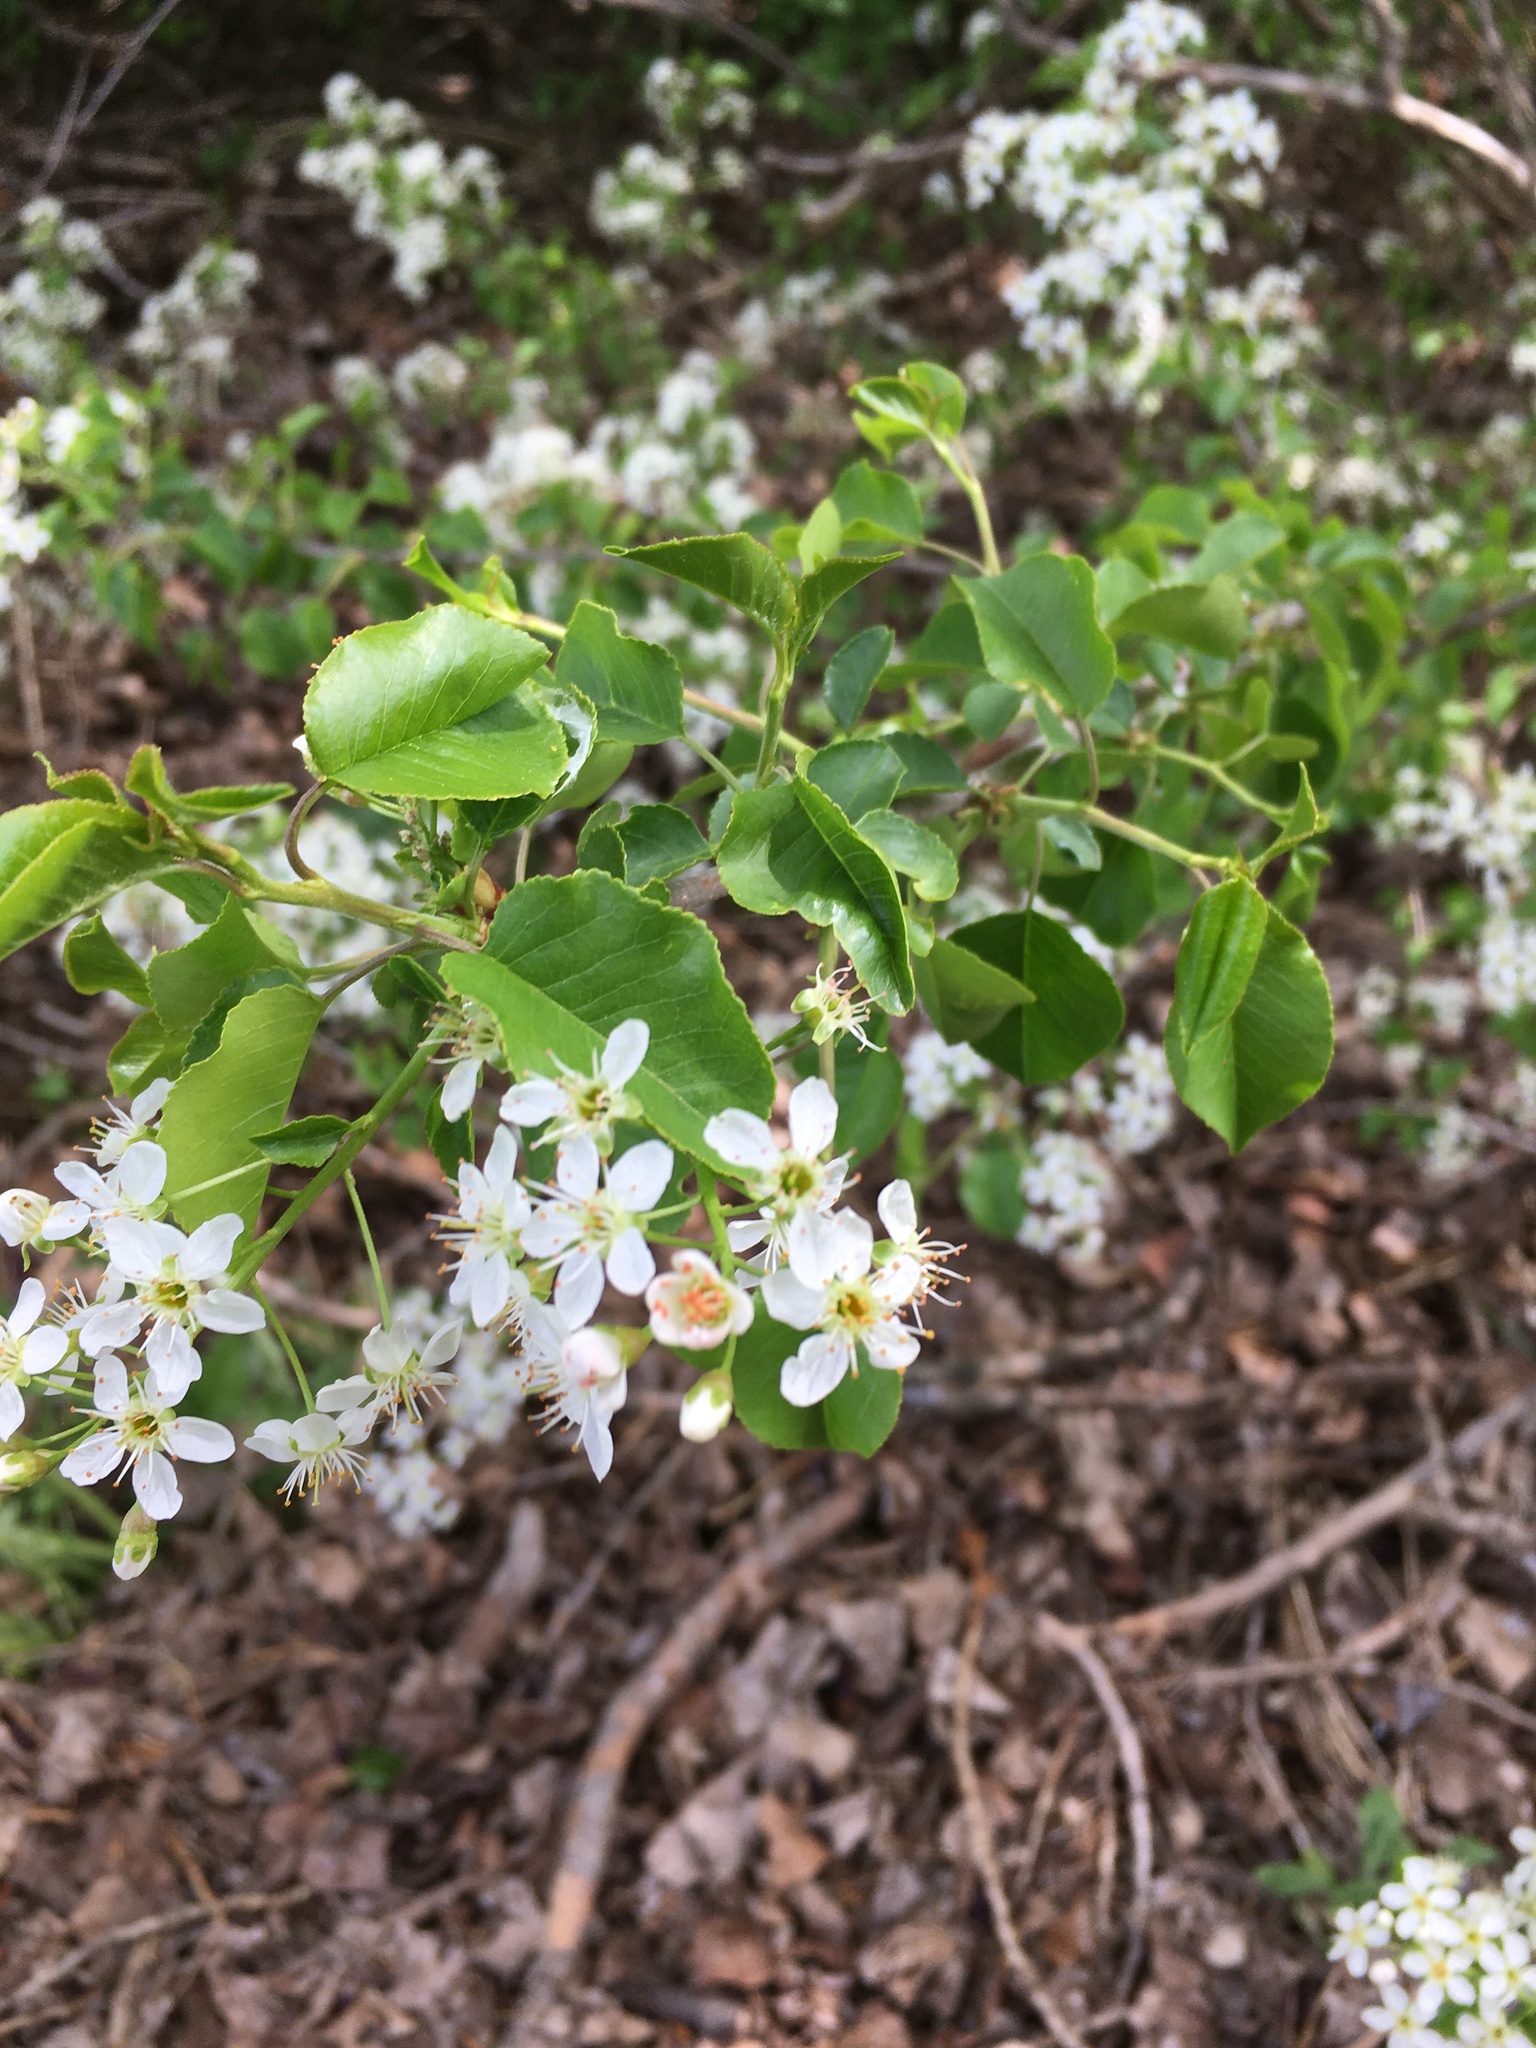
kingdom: Plantae
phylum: Tracheophyta
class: Magnoliopsida
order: Rosales
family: Rosaceae
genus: Prunus
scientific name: Prunus mahaleb
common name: Mahaleb cherry
